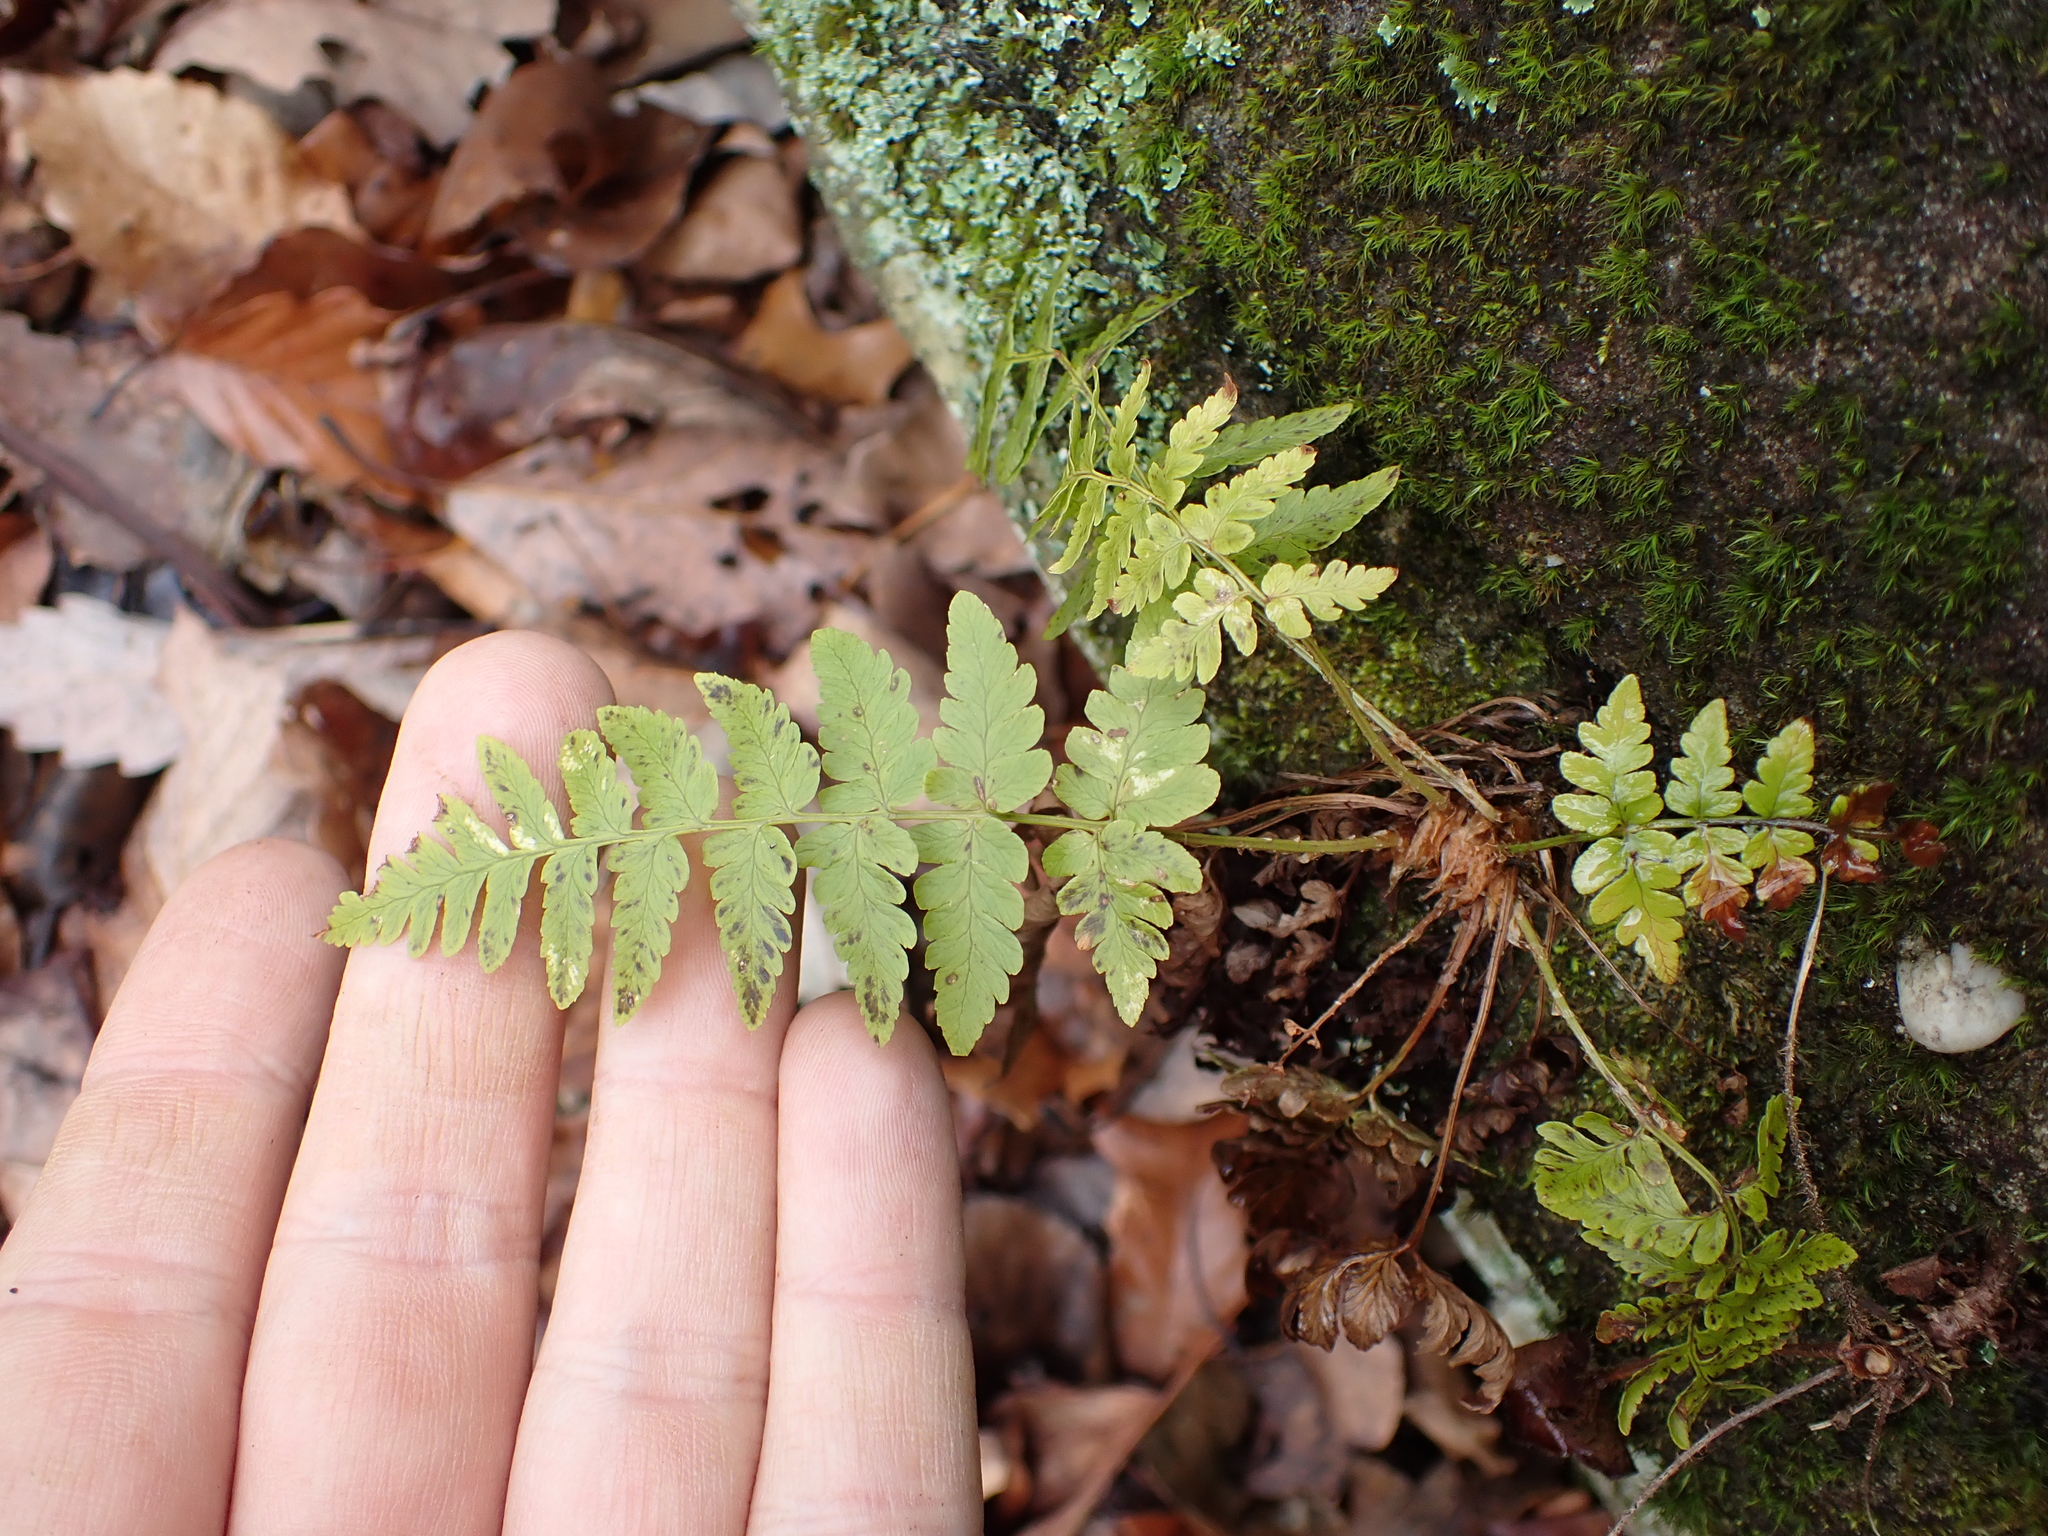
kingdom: Plantae
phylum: Tracheophyta
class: Polypodiopsida
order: Polypodiales
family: Dryopteridaceae
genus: Dryopteris
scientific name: Dryopteris marginalis
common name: Marginal wood fern
